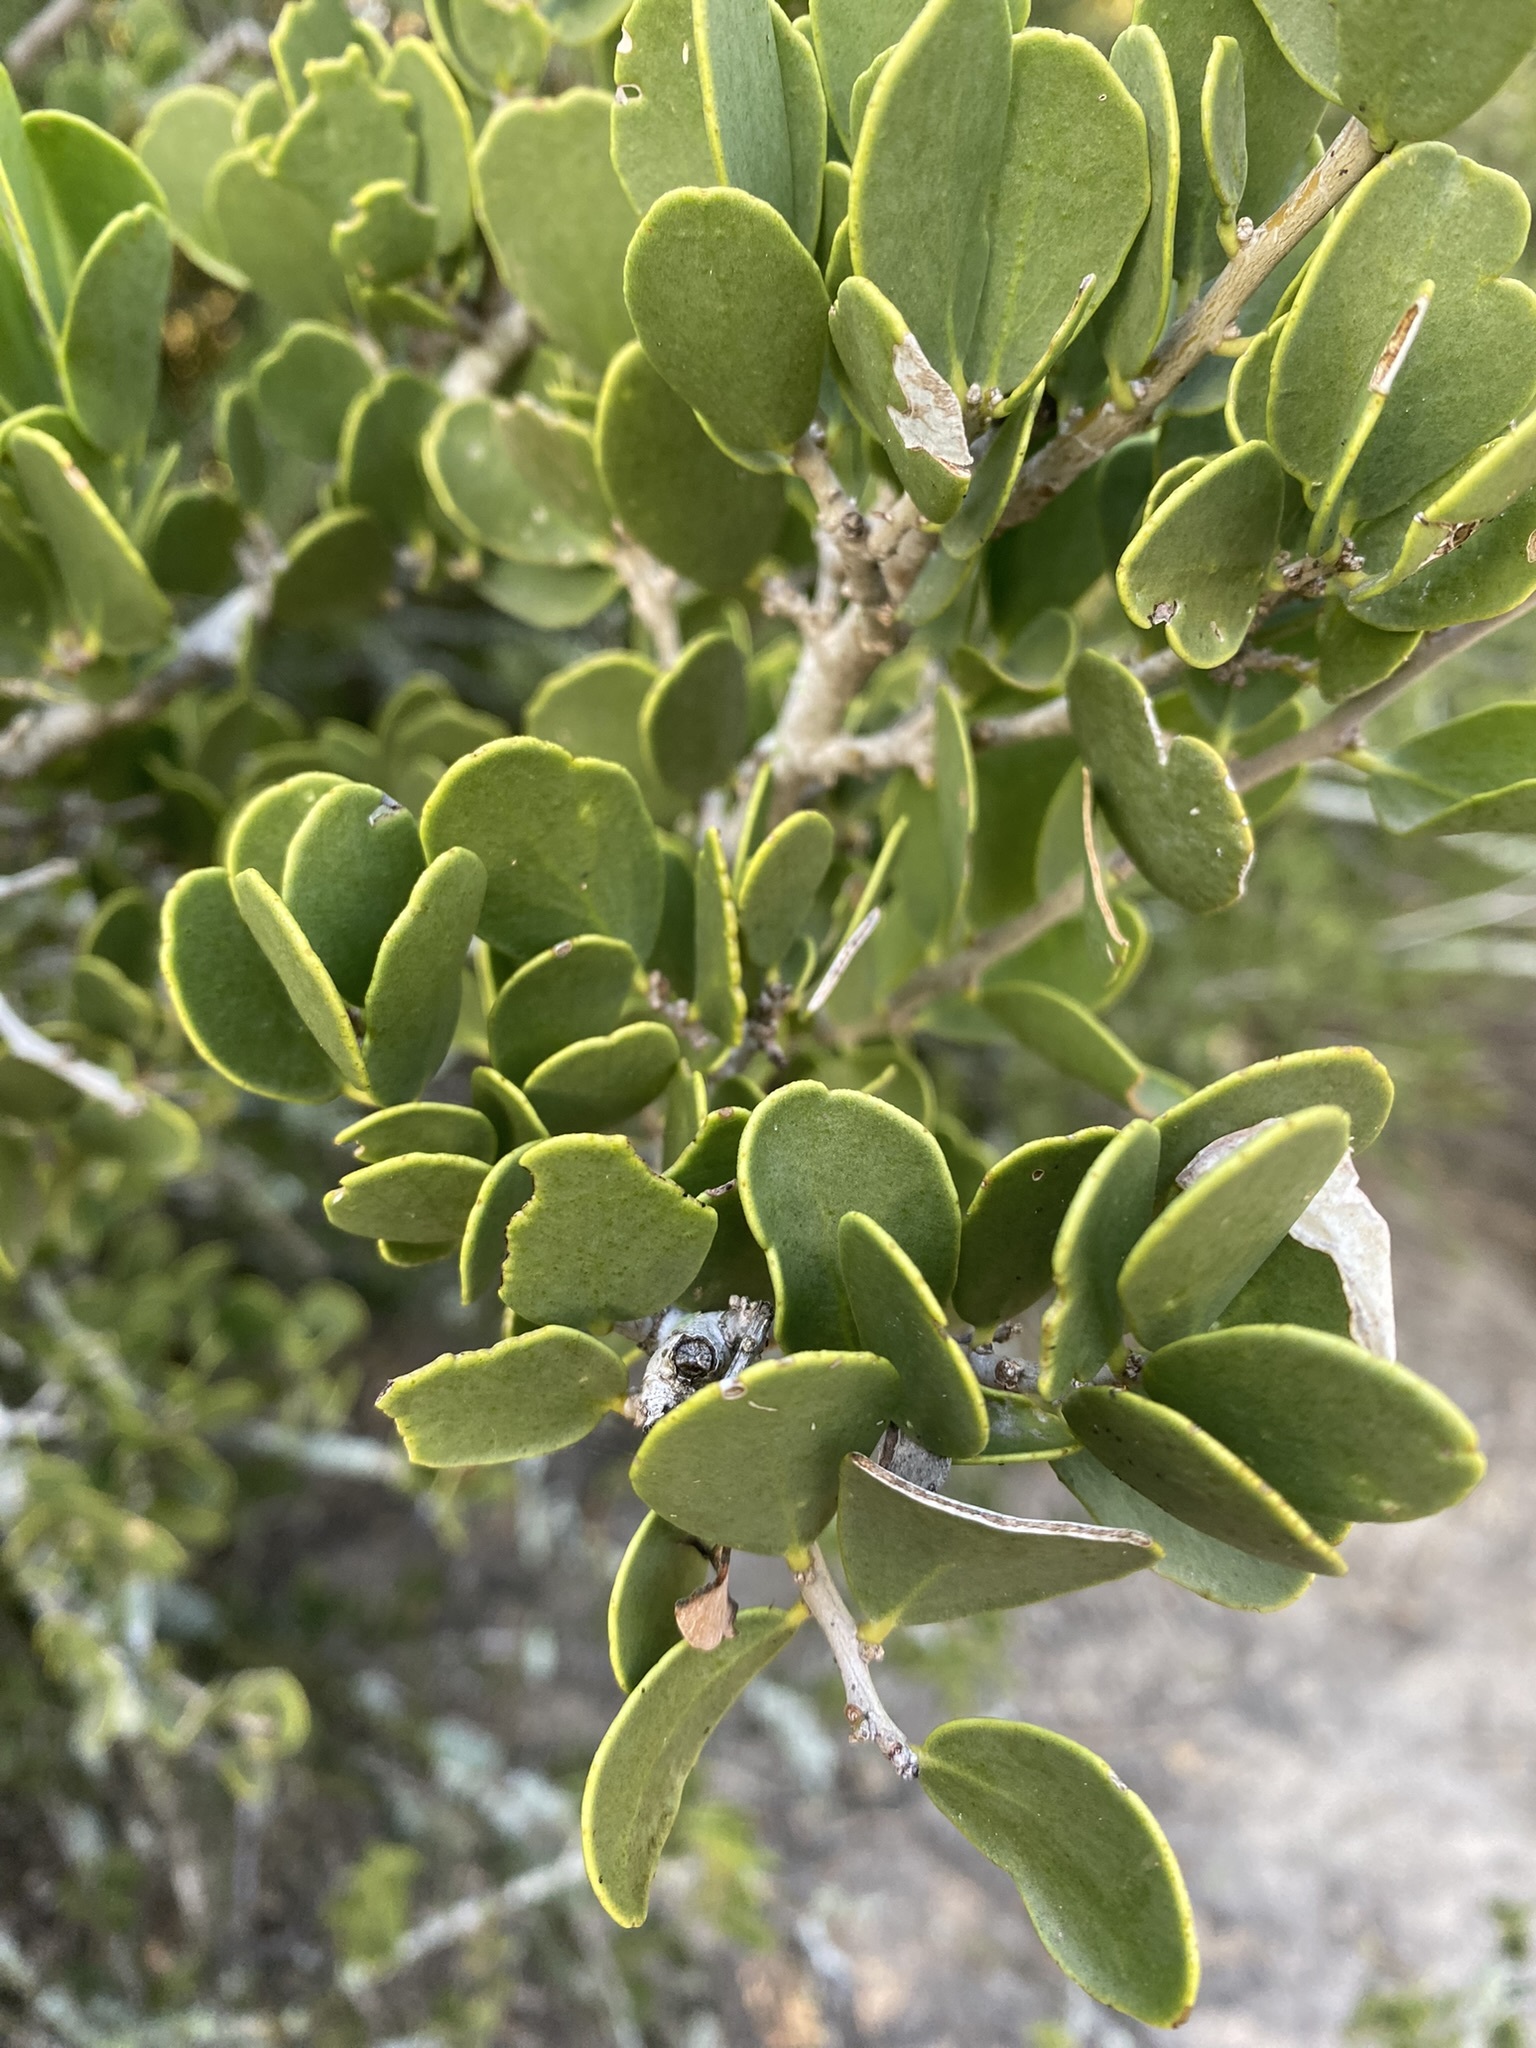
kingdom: Plantae
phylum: Tracheophyta
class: Magnoliopsida
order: Celastrales
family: Celastraceae
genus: Tricerma
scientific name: Tricerma vitis-idaeum
